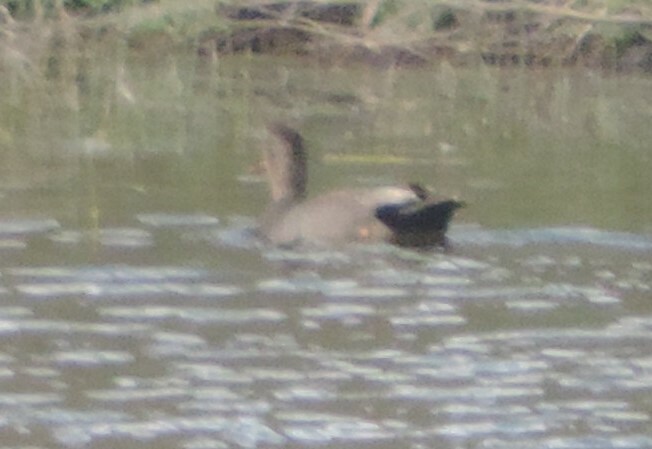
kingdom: Animalia
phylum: Chordata
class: Aves
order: Anseriformes
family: Anatidae
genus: Mareca
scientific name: Mareca strepera
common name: Gadwall
